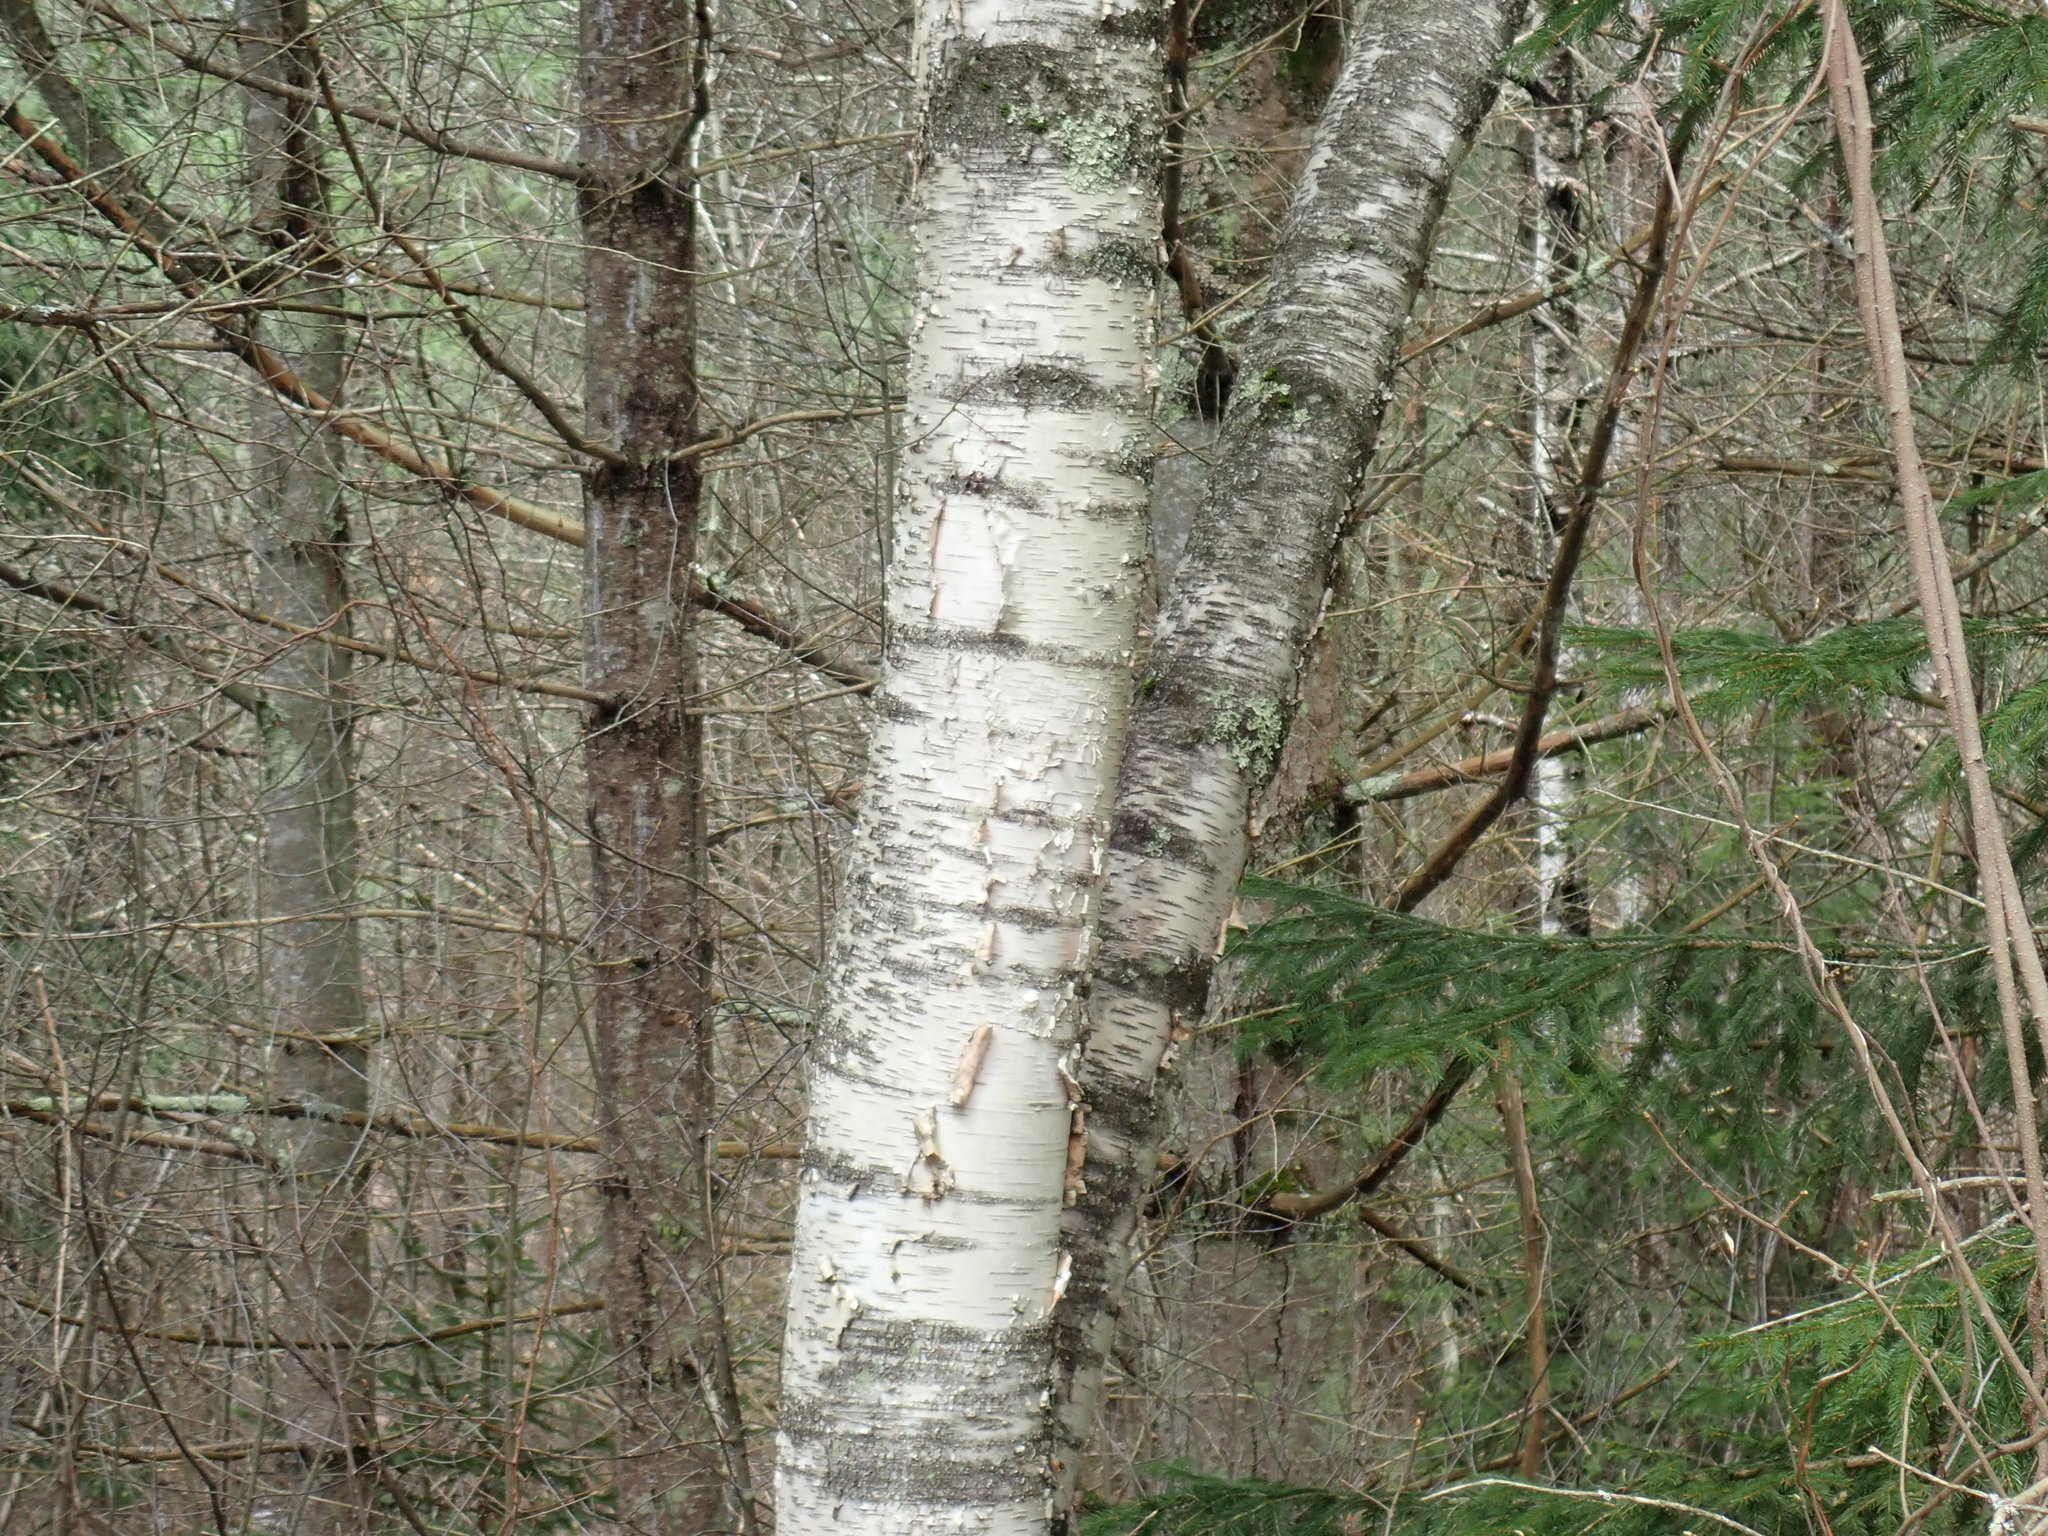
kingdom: Plantae
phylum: Tracheophyta
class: Magnoliopsida
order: Fagales
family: Betulaceae
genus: Betula
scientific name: Betula papyrifera
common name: Paper birch
